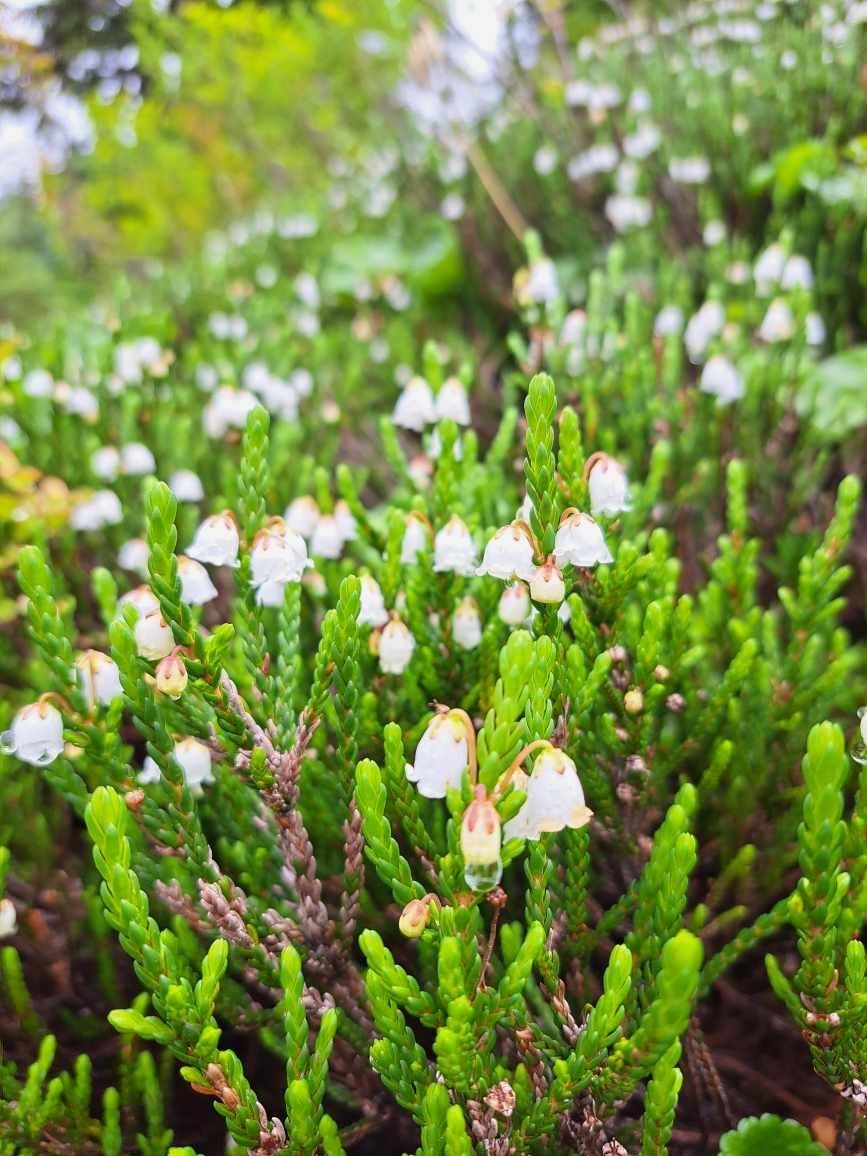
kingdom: Plantae
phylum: Tracheophyta
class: Magnoliopsida
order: Ericales
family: Ericaceae
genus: Cassiope
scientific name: Cassiope mertensiana
